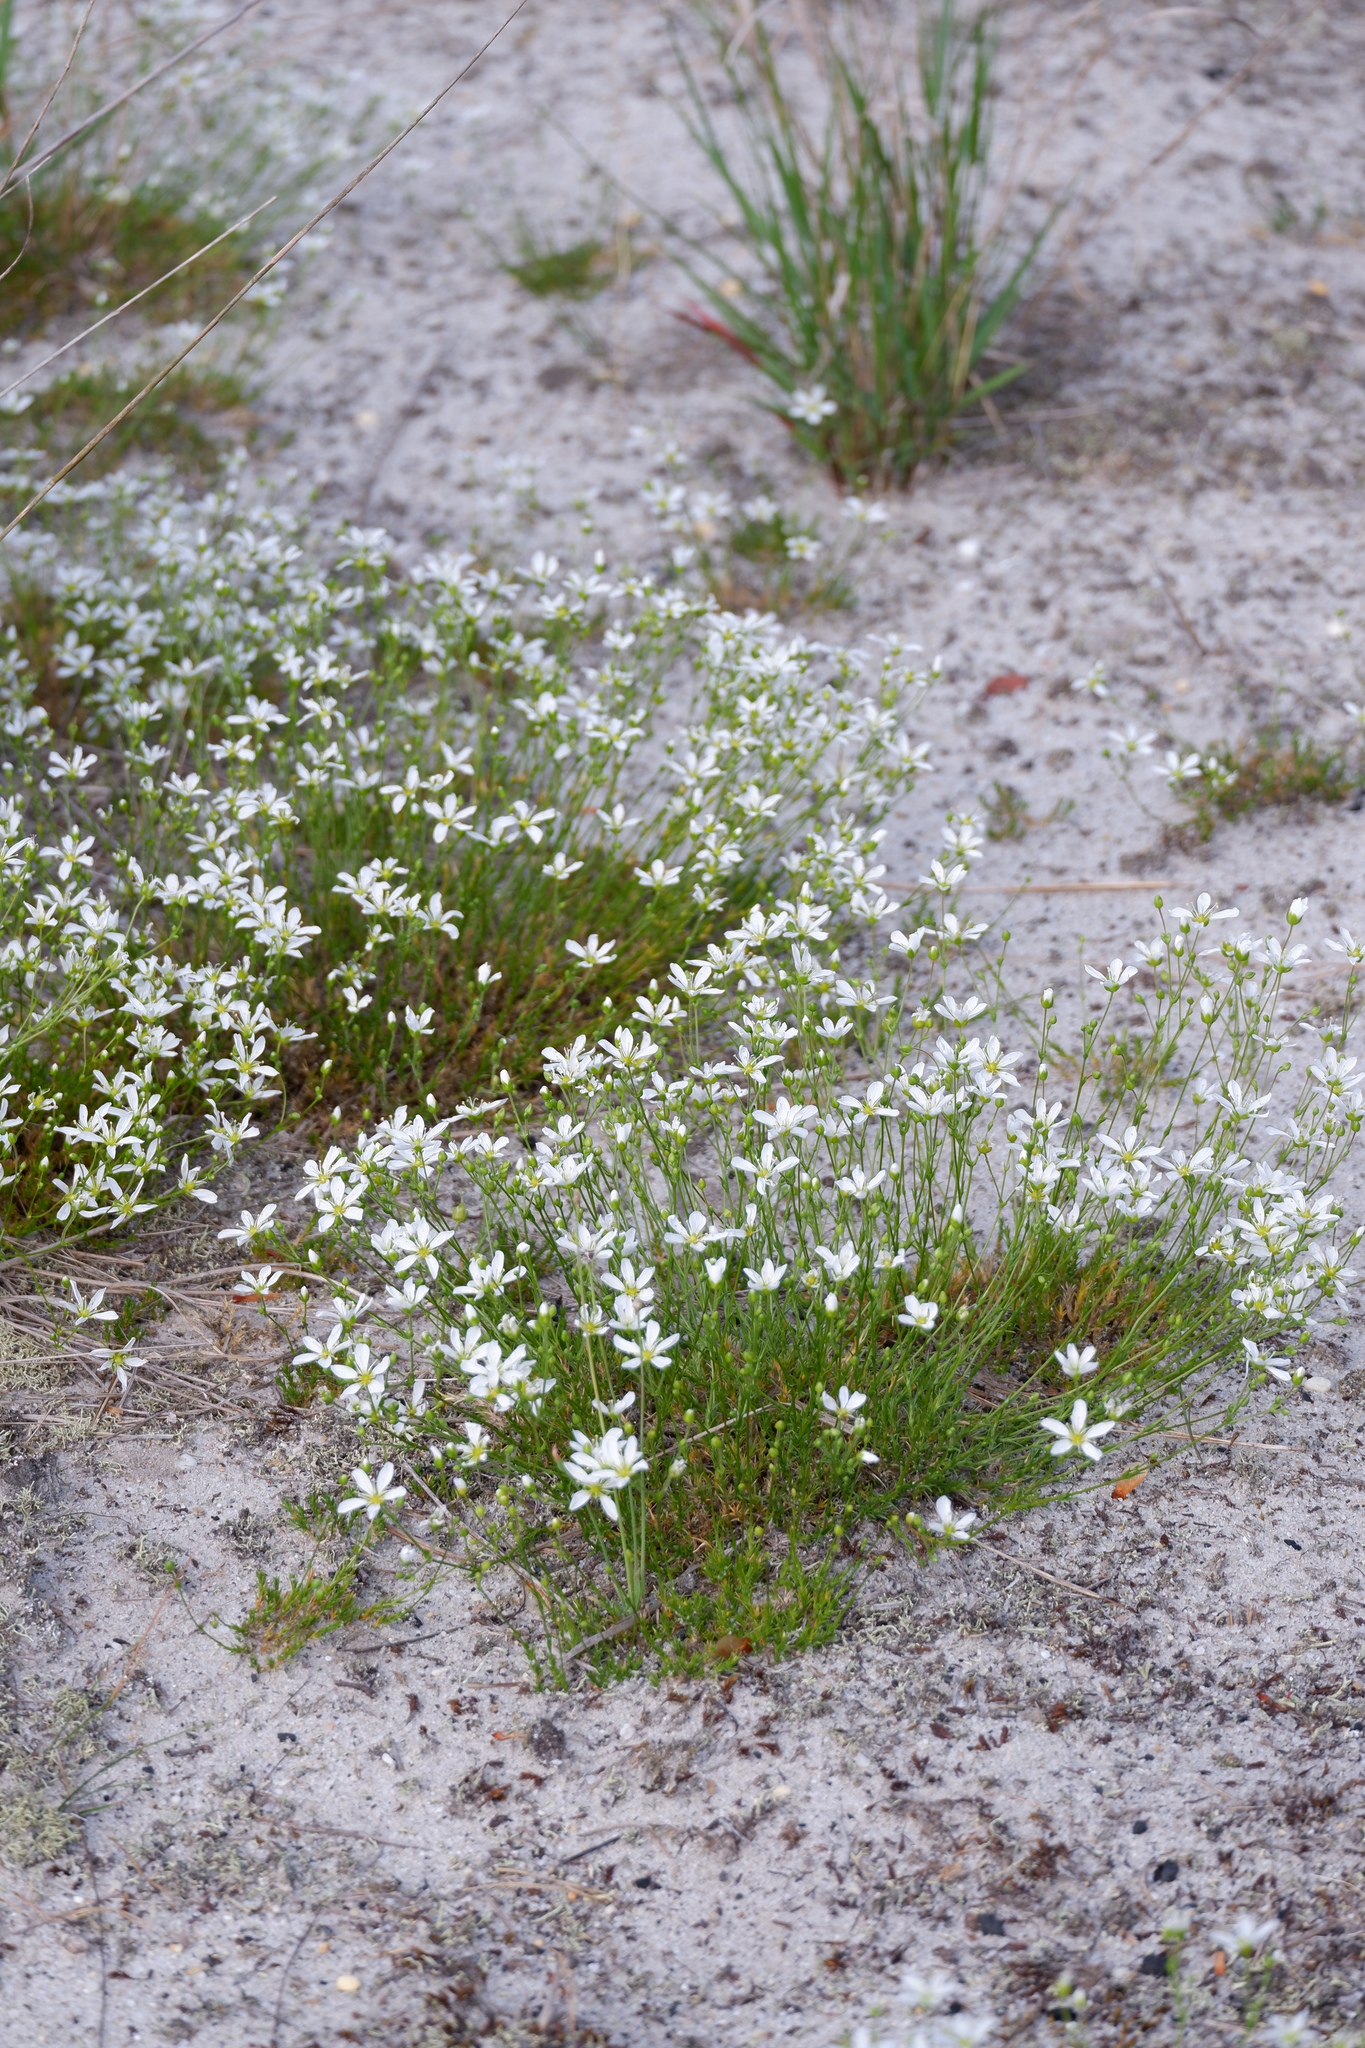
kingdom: Plantae
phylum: Tracheophyta
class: Magnoliopsida
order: Caryophyllales
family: Caryophyllaceae
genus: Geocarpon
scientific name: Geocarpon carolinianum
